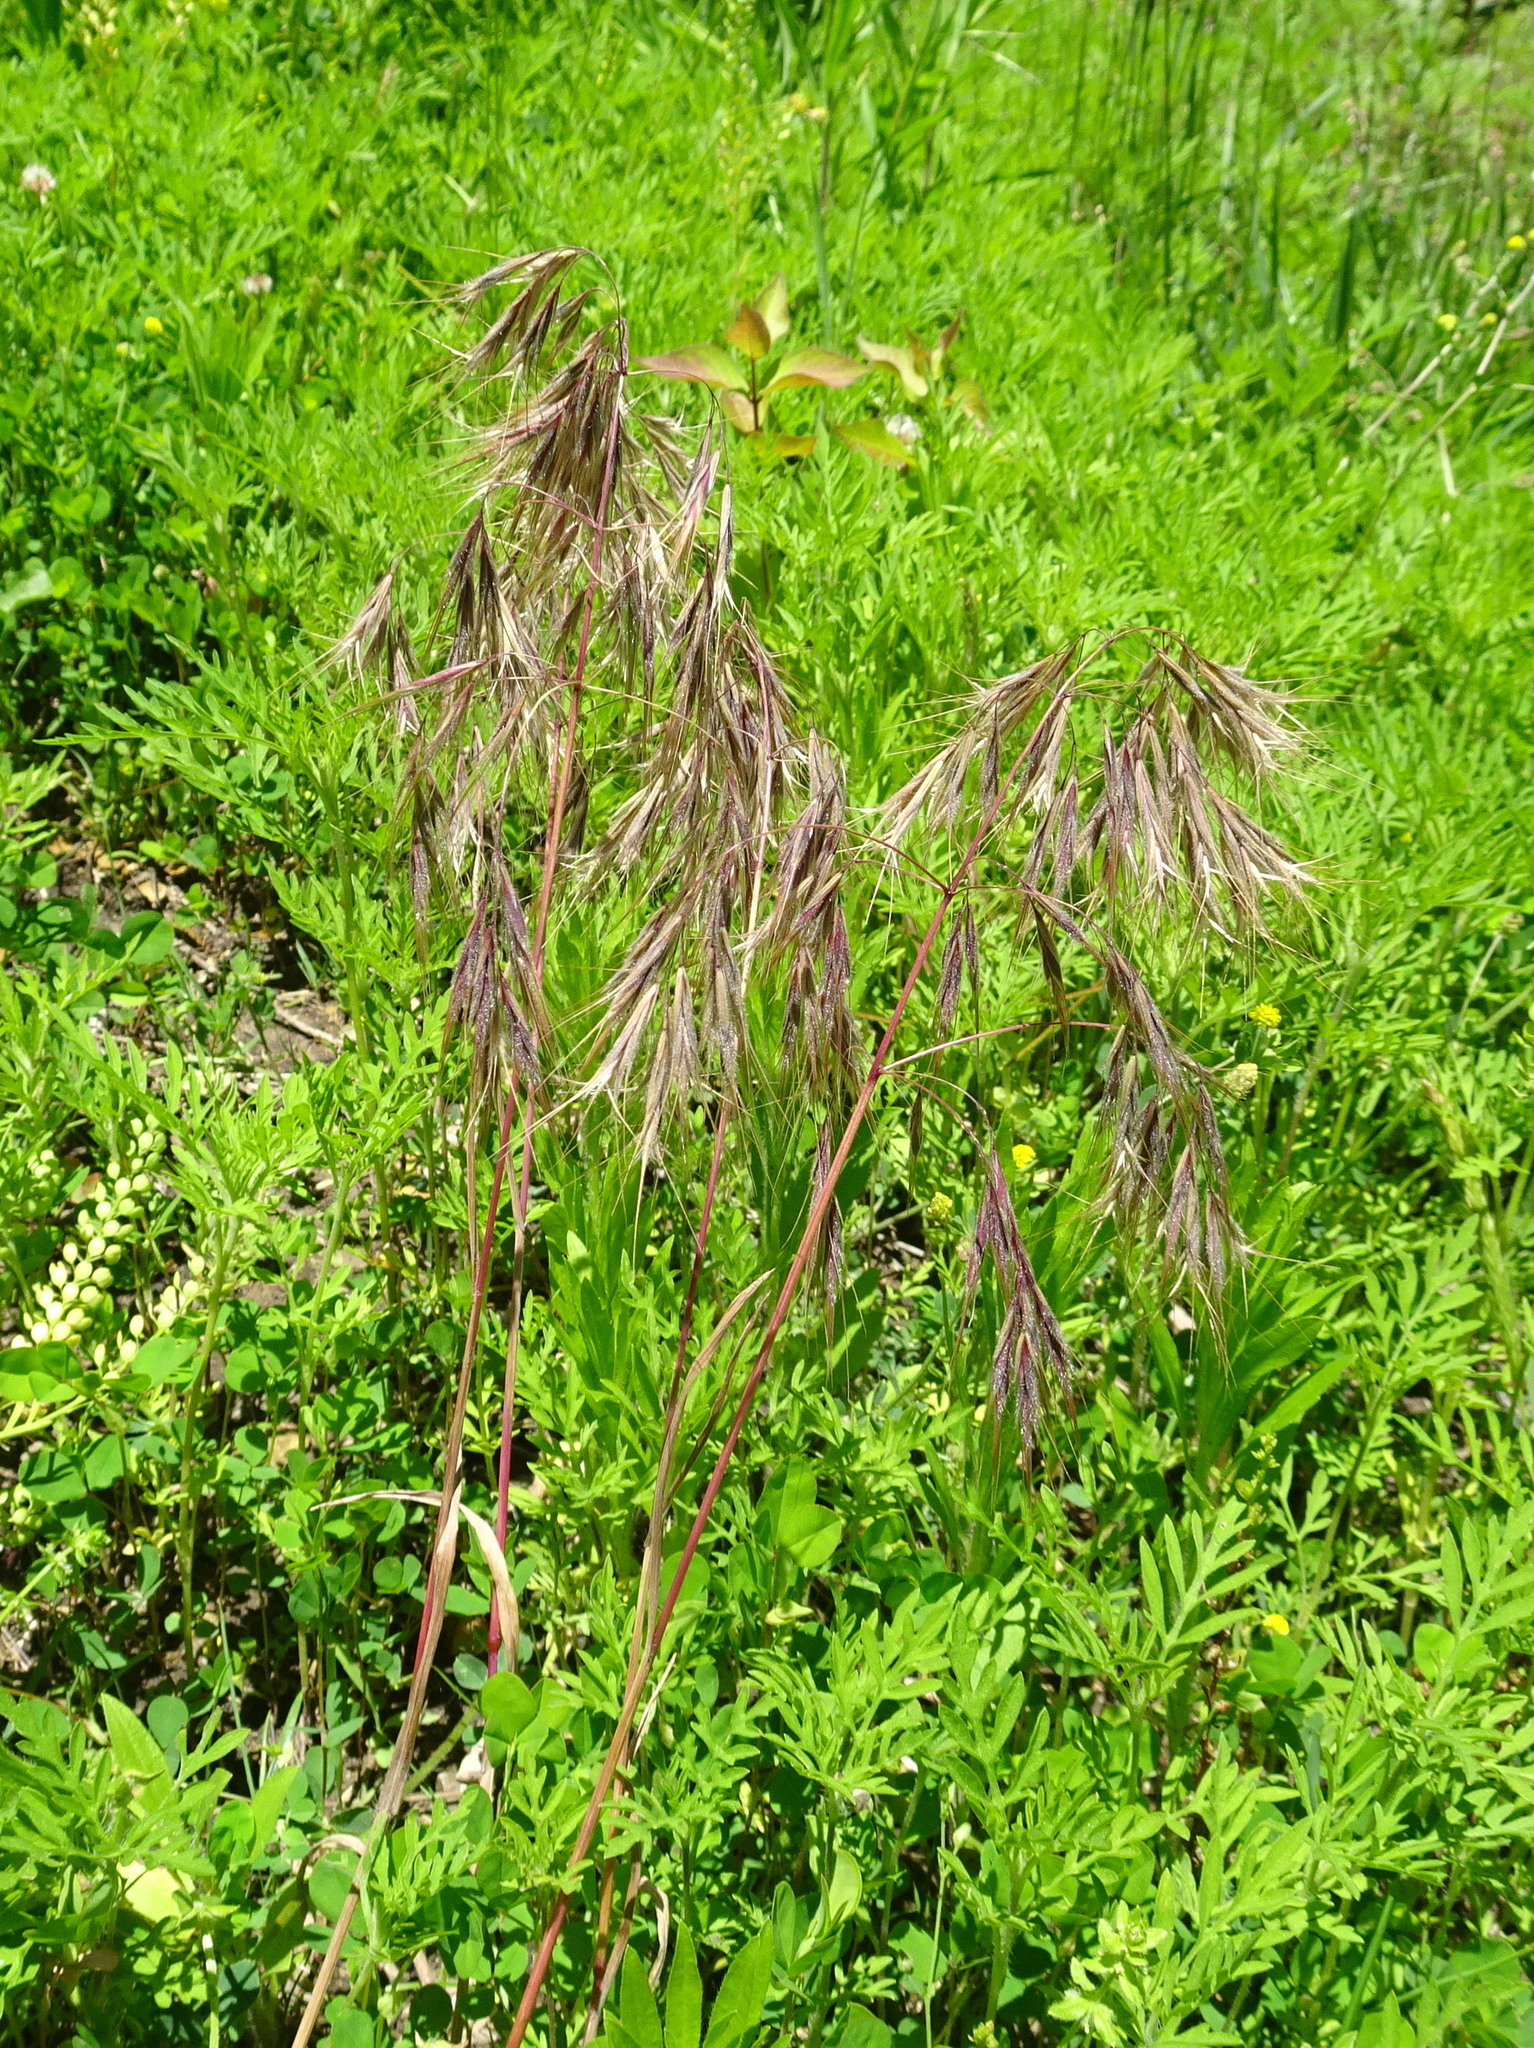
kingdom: Plantae
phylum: Tracheophyta
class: Liliopsida
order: Poales
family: Poaceae
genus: Bromus
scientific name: Bromus tectorum
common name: Cheatgrass
